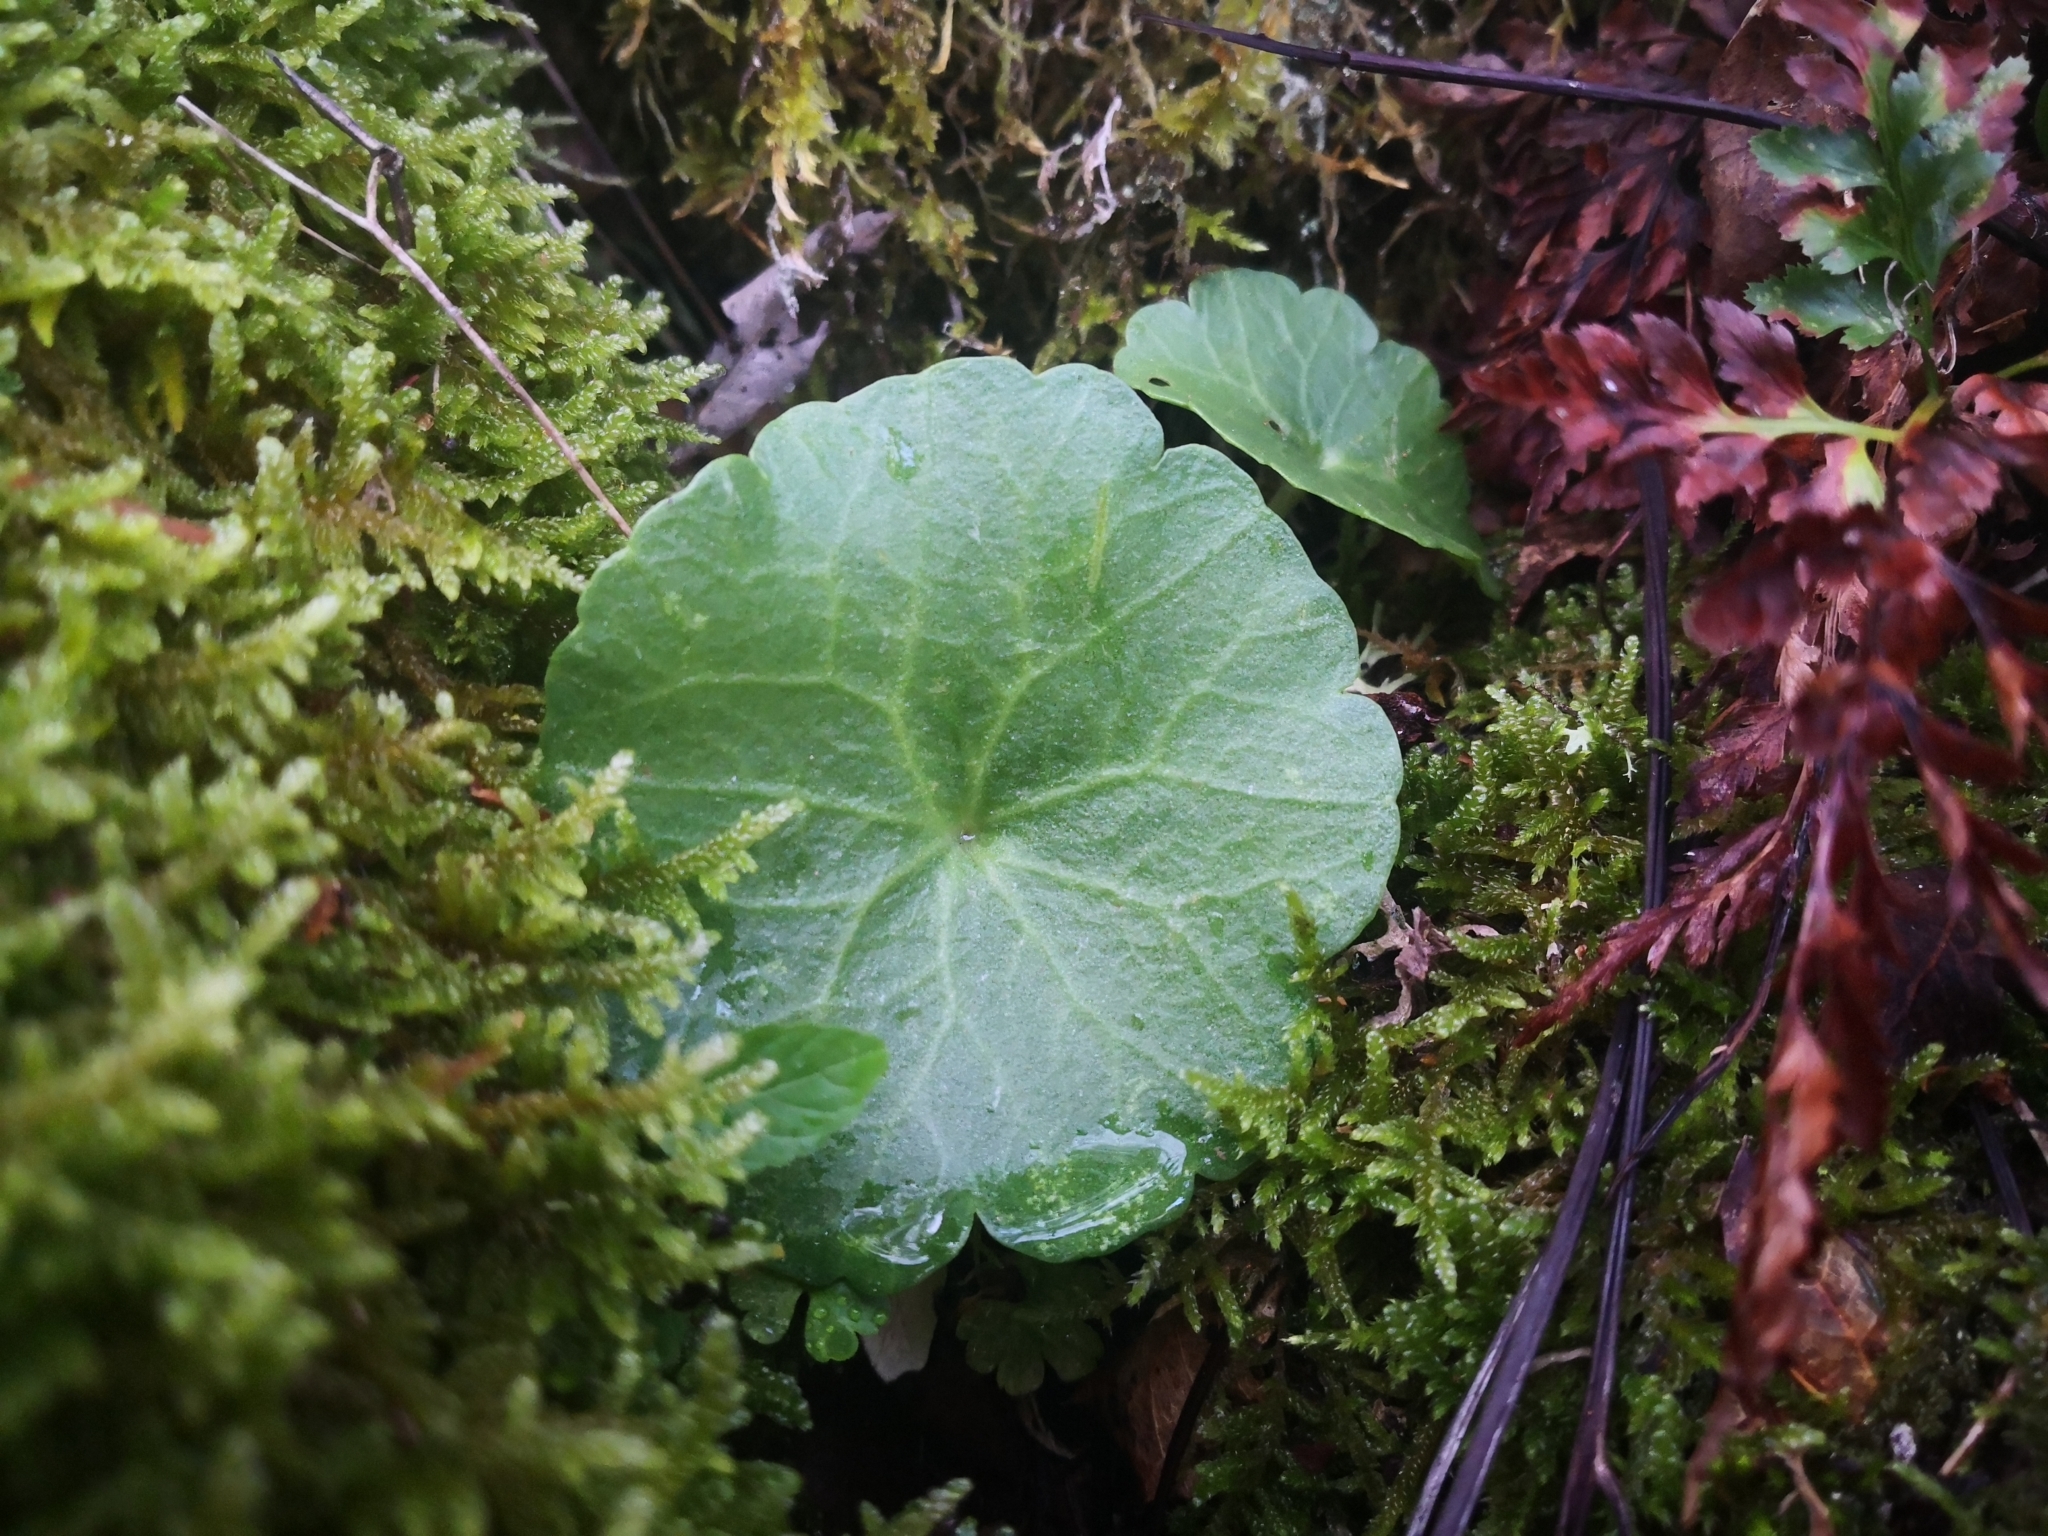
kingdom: Plantae
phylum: Tracheophyta
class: Magnoliopsida
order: Saxifragales
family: Crassulaceae
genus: Umbilicus
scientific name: Umbilicus rupestris
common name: Navelwort
